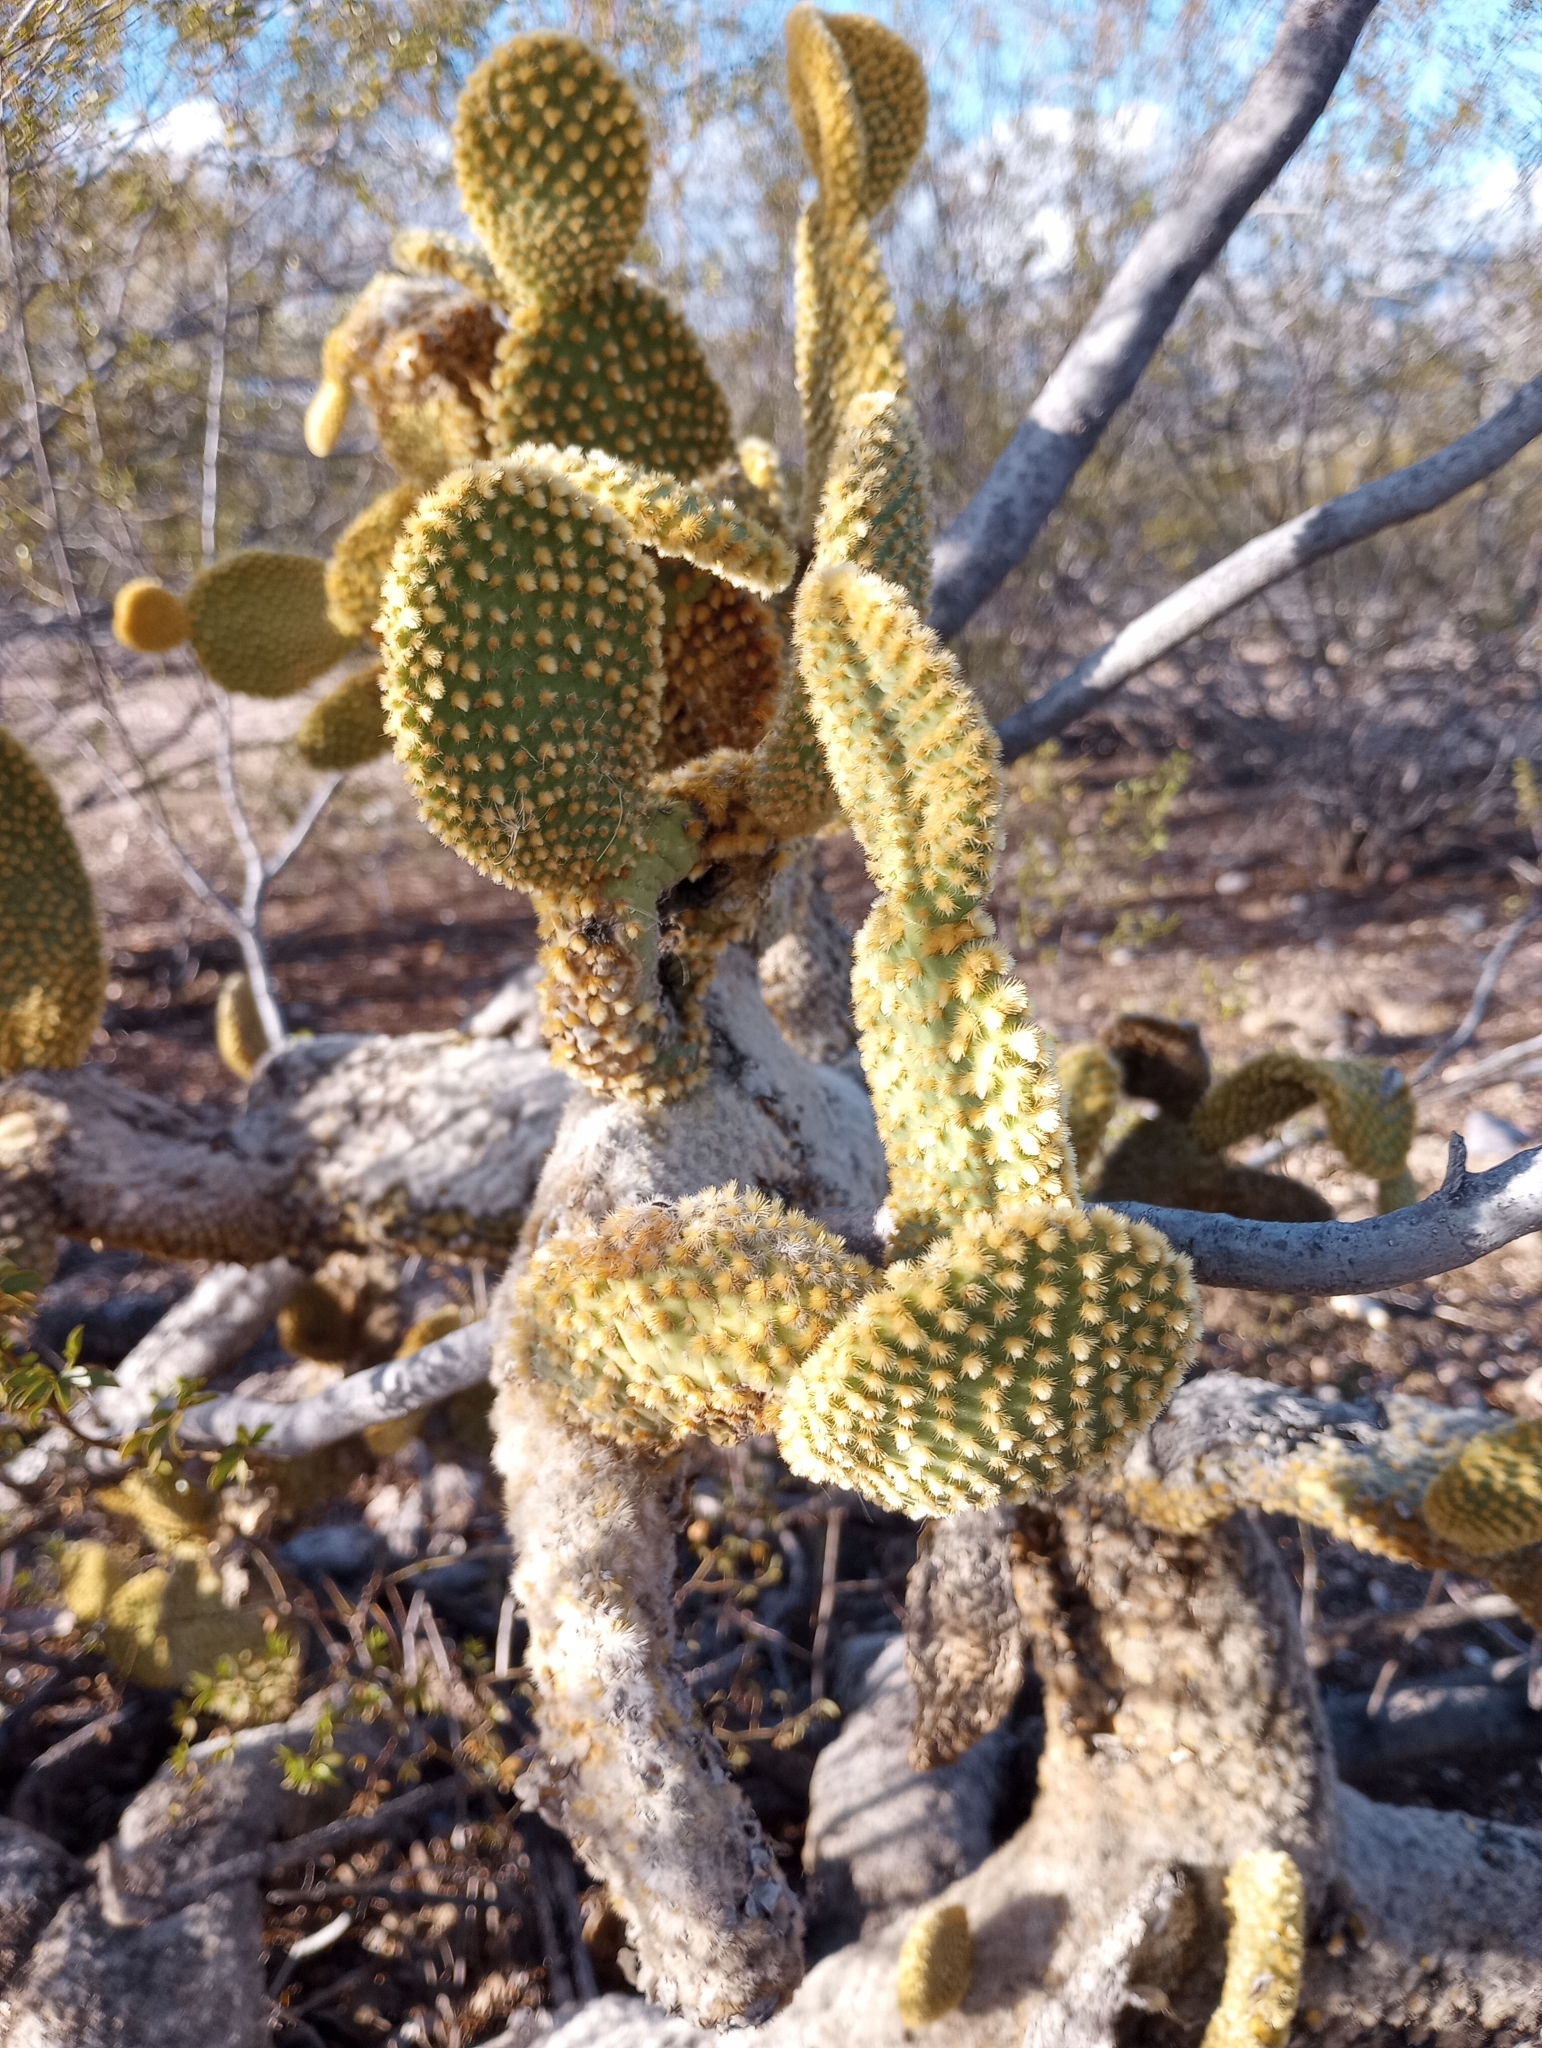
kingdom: Plantae
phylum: Tracheophyta
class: Magnoliopsida
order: Caryophyllales
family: Cactaceae
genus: Opuntia
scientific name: Opuntia microdasys
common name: Angel's-wings
